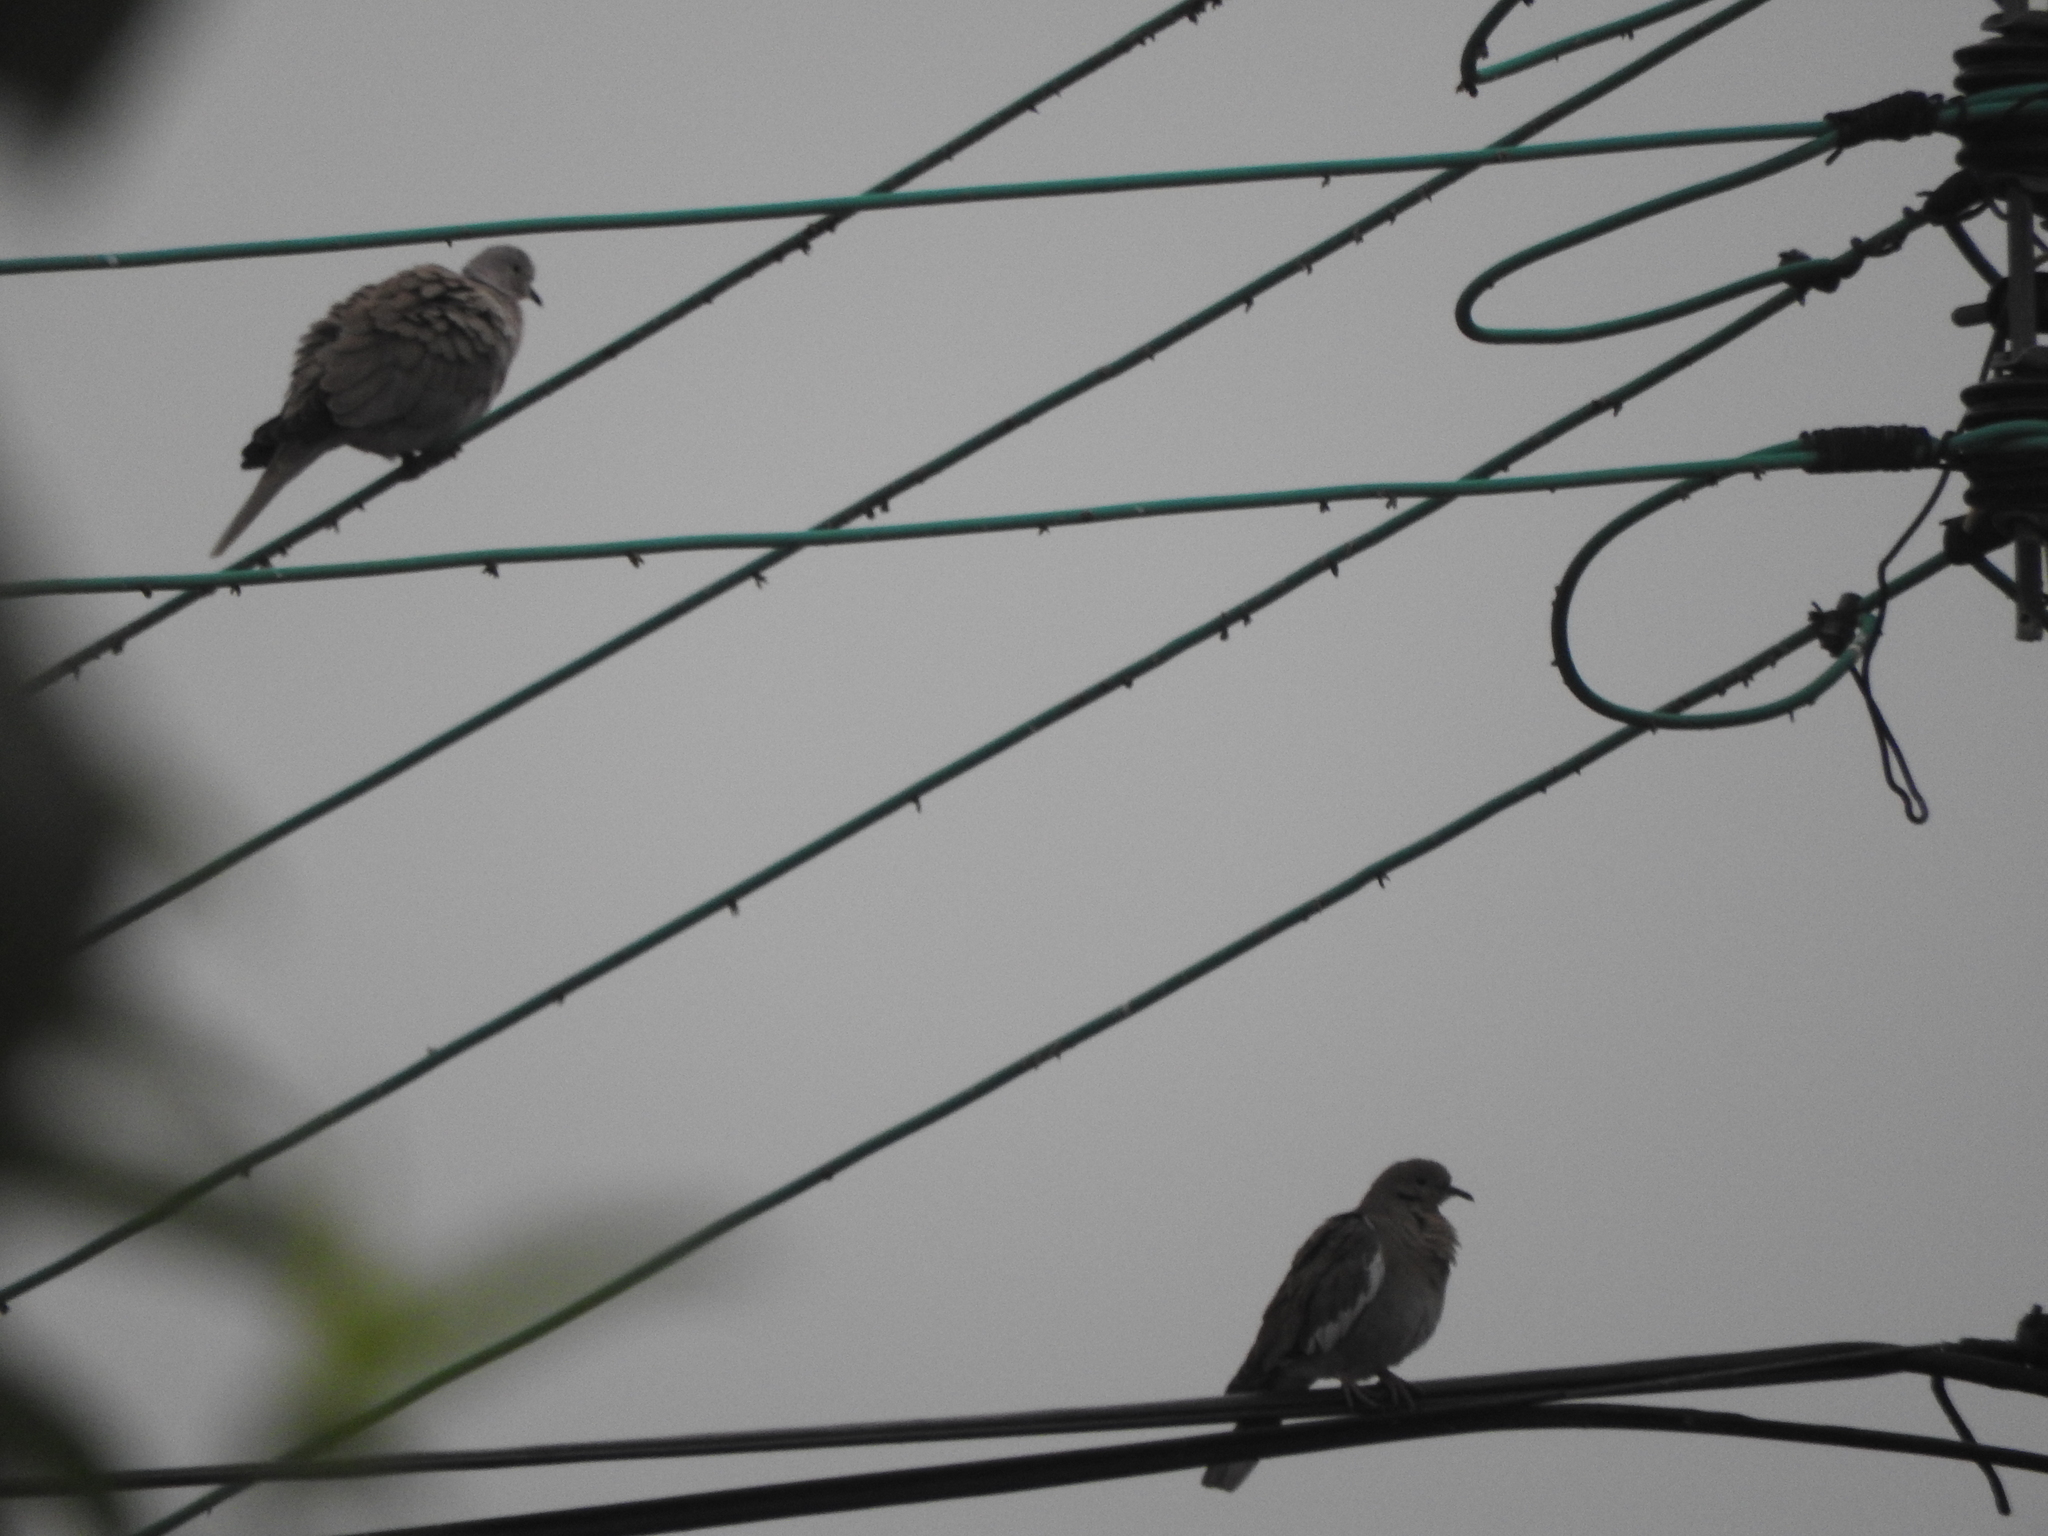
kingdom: Animalia
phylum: Chordata
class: Aves
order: Columbiformes
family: Columbidae
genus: Streptopelia
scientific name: Streptopelia decaocto
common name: Eurasian collared dove
